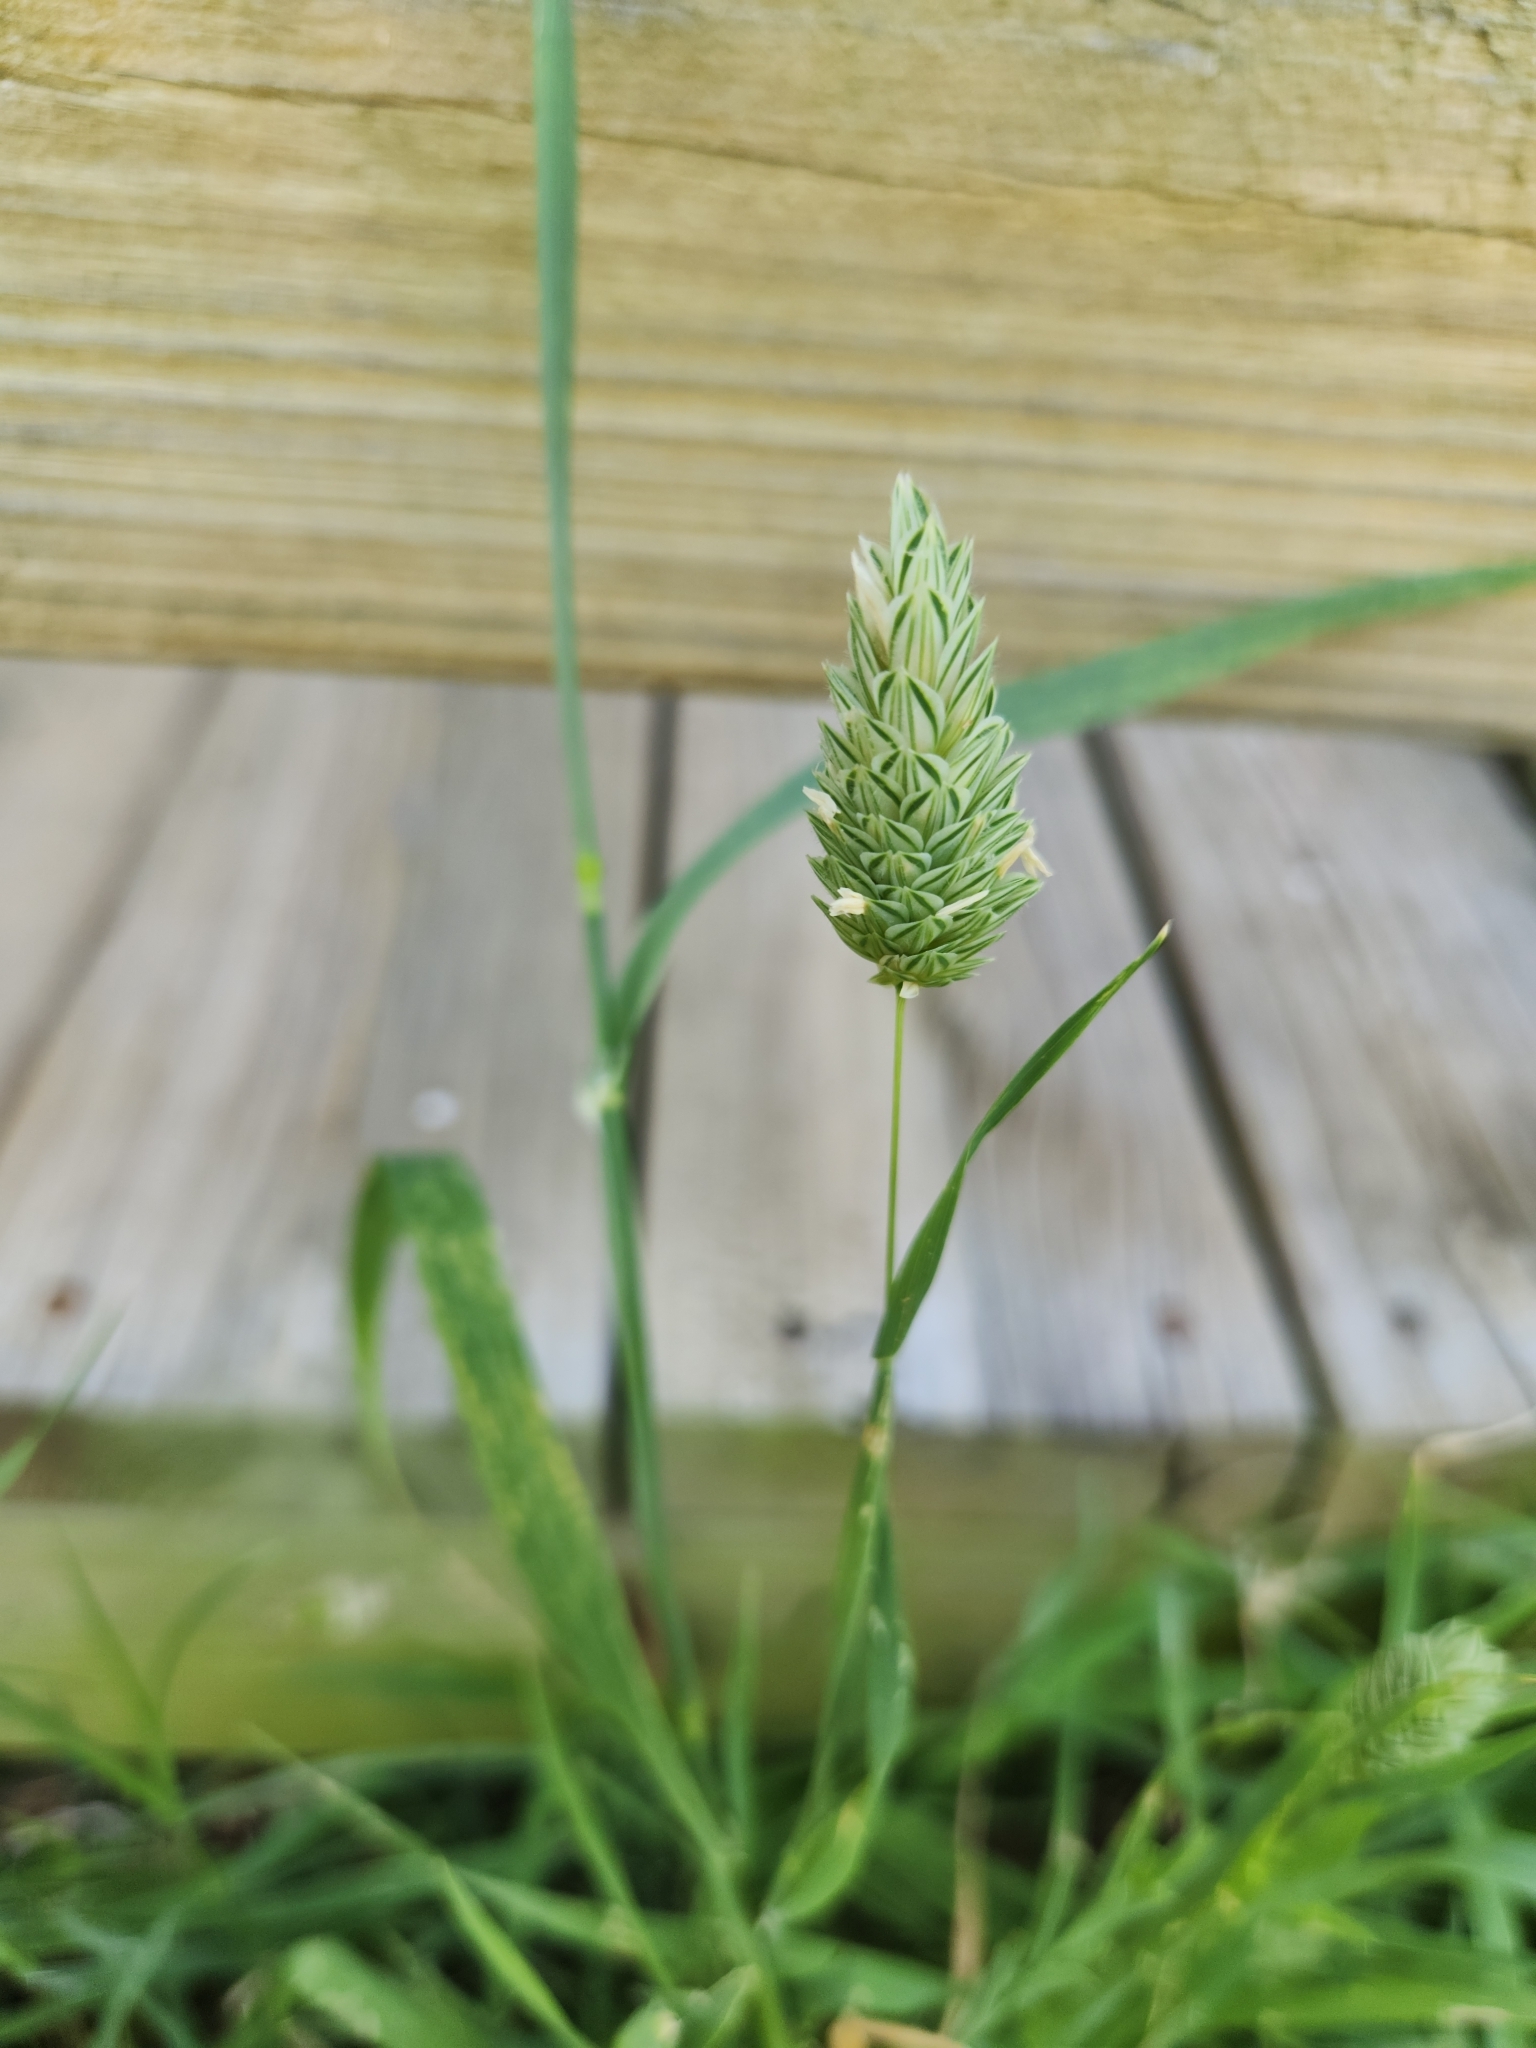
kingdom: Plantae
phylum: Tracheophyta
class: Liliopsida
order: Poales
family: Poaceae
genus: Phalaris
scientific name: Phalaris canariensis
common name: Annual canarygrass
